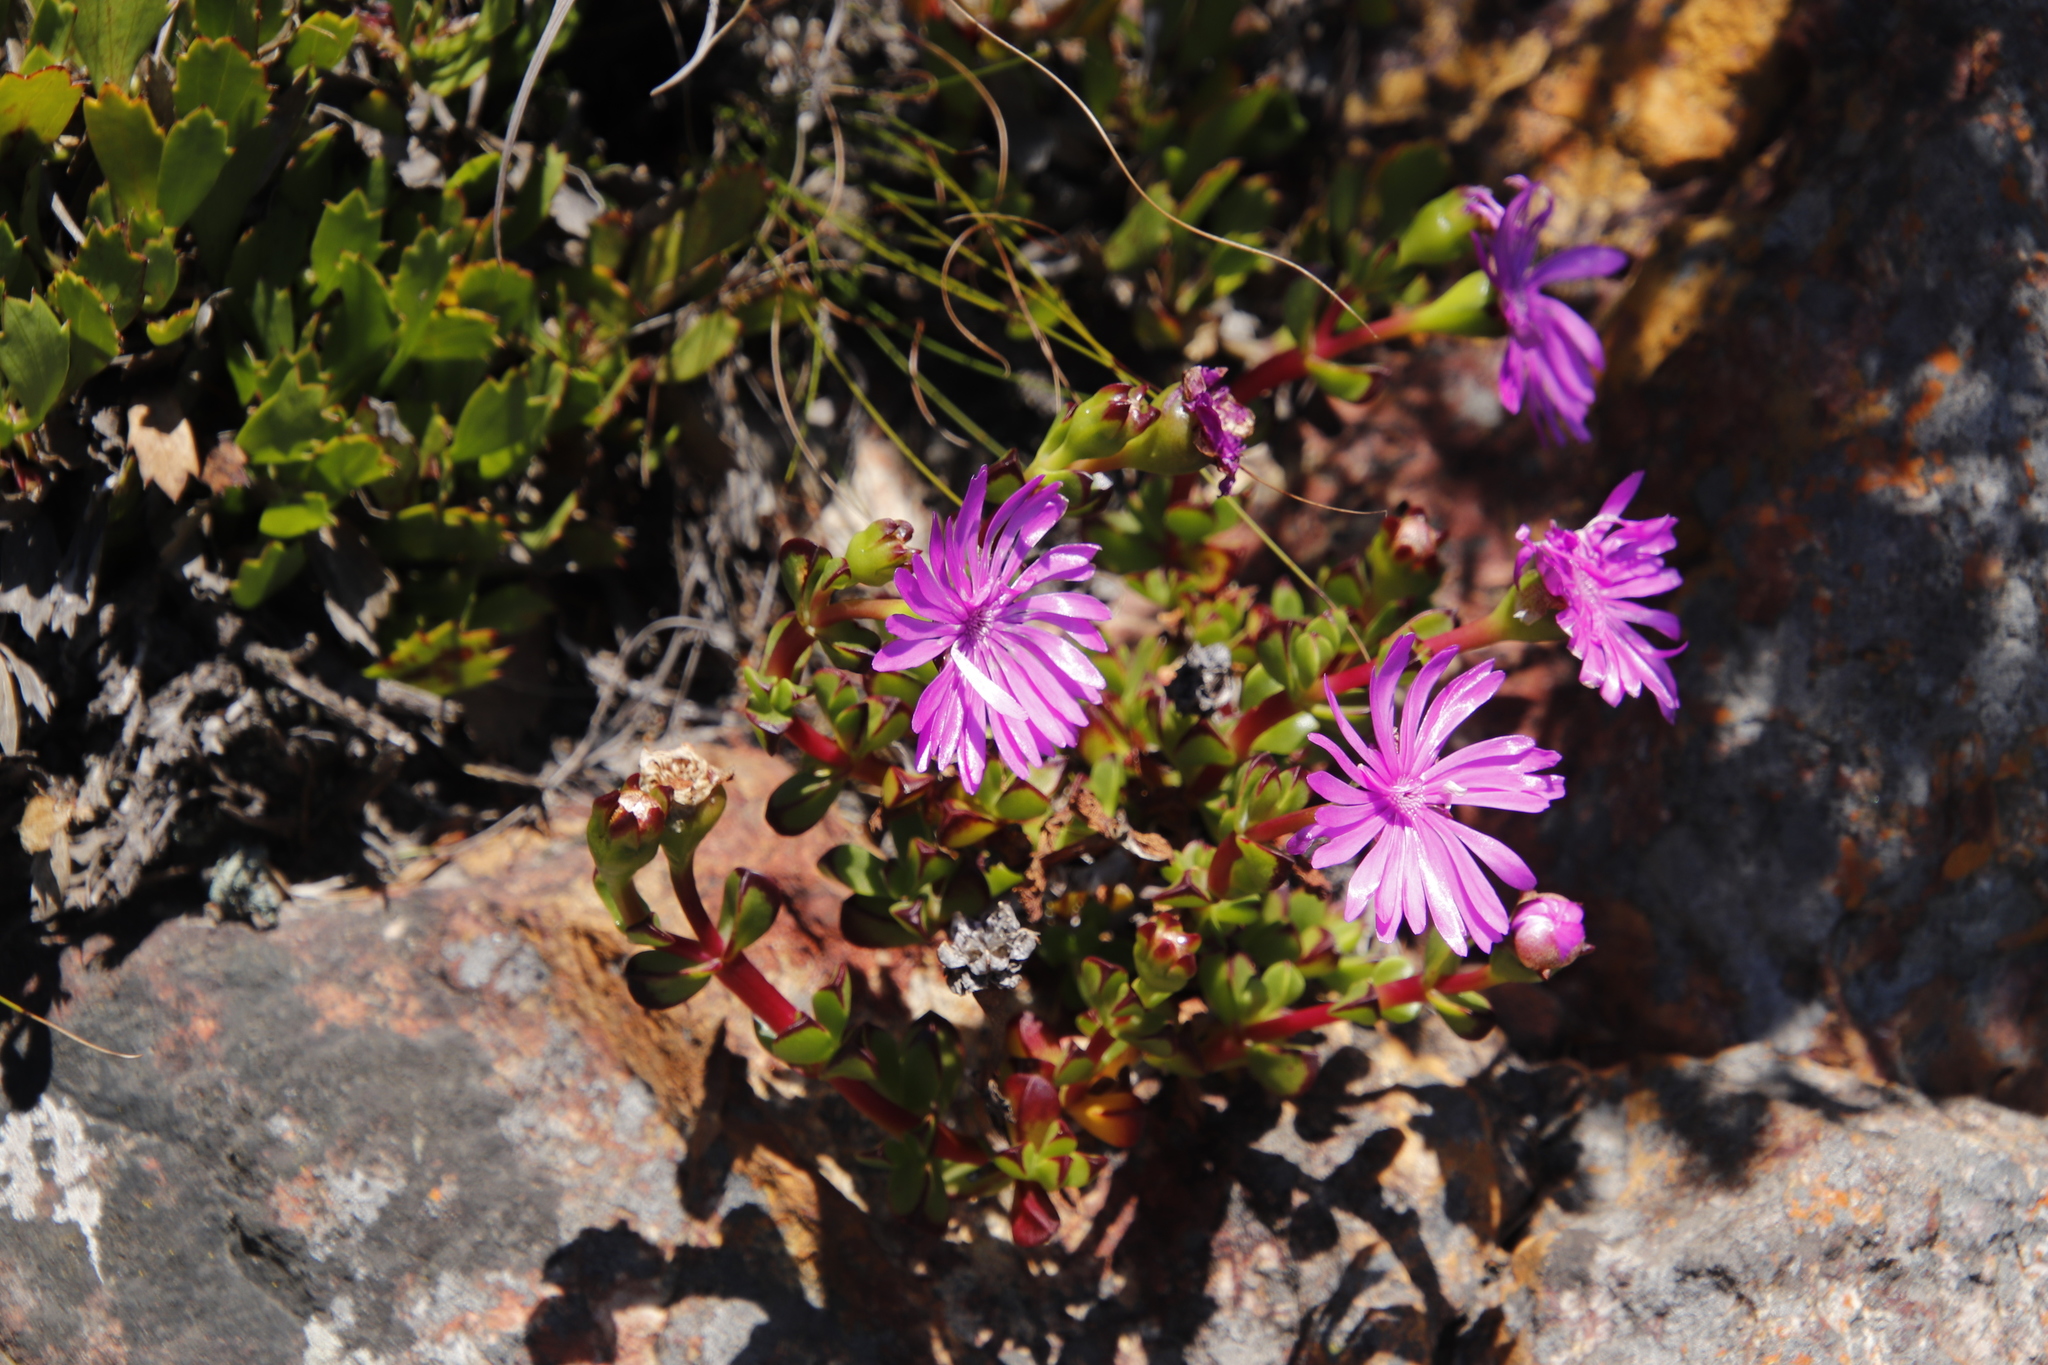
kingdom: Plantae
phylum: Tracheophyta
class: Magnoliopsida
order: Caryophyllales
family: Aizoaceae
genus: Erepsia
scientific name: Erepsia inclaudens
